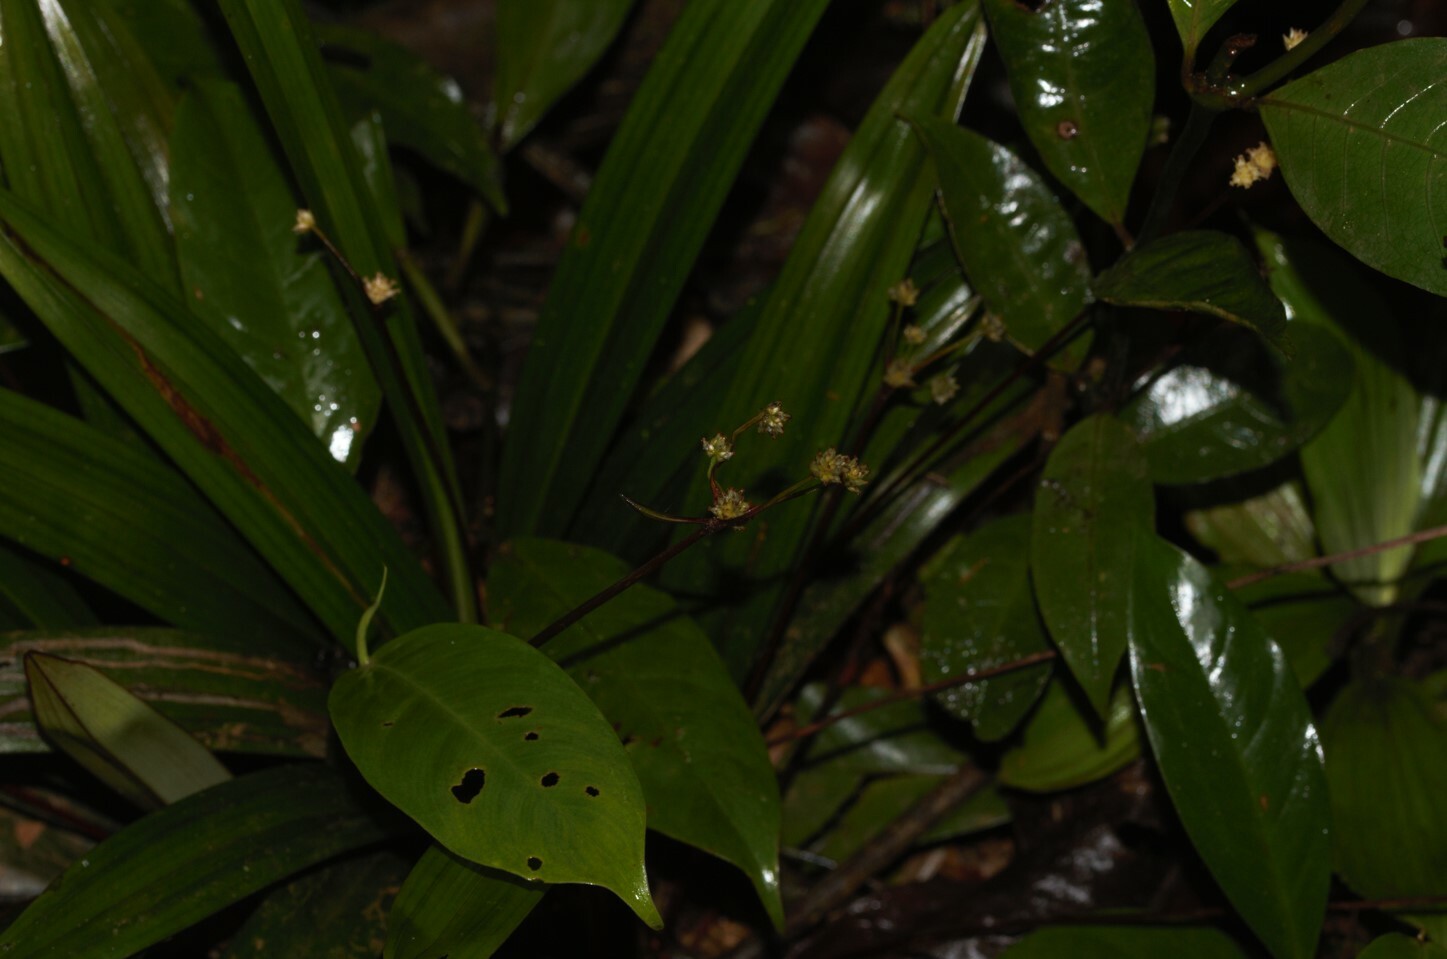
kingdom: Plantae
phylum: Tracheophyta
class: Liliopsida
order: Poales
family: Cyperaceae
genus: Bisboeckelera
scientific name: Bisboeckelera microcephala
